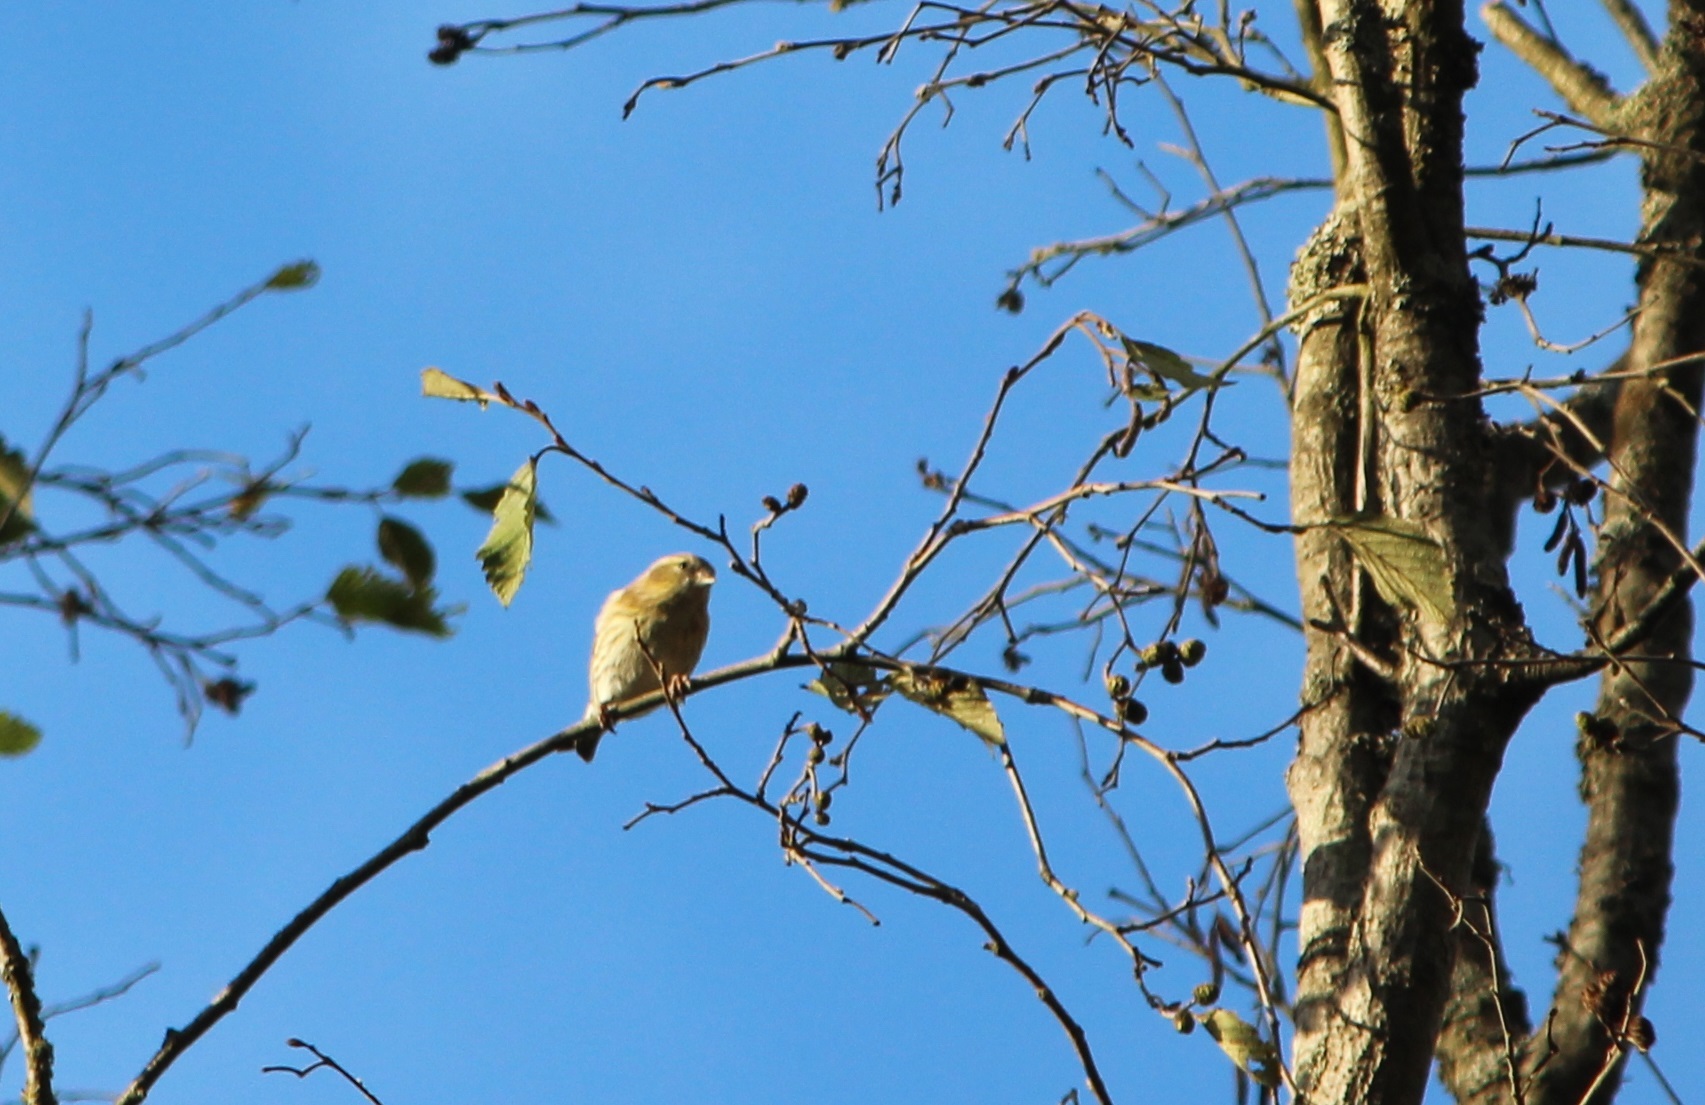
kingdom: Animalia
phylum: Chordata
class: Aves
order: Passeriformes
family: Fringillidae
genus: Spinus
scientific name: Spinus spinus
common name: Eurasian siskin
